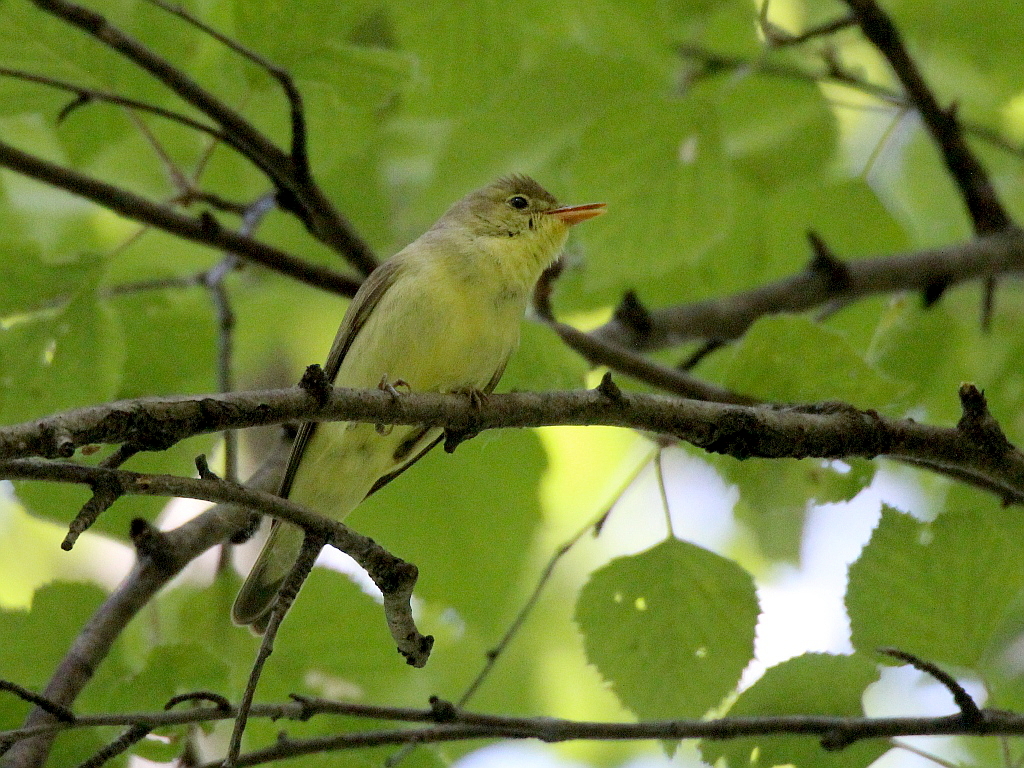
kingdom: Animalia
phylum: Chordata
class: Aves
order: Passeriformes
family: Acrocephalidae
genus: Hippolais
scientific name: Hippolais icterina
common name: Icterine warbler
